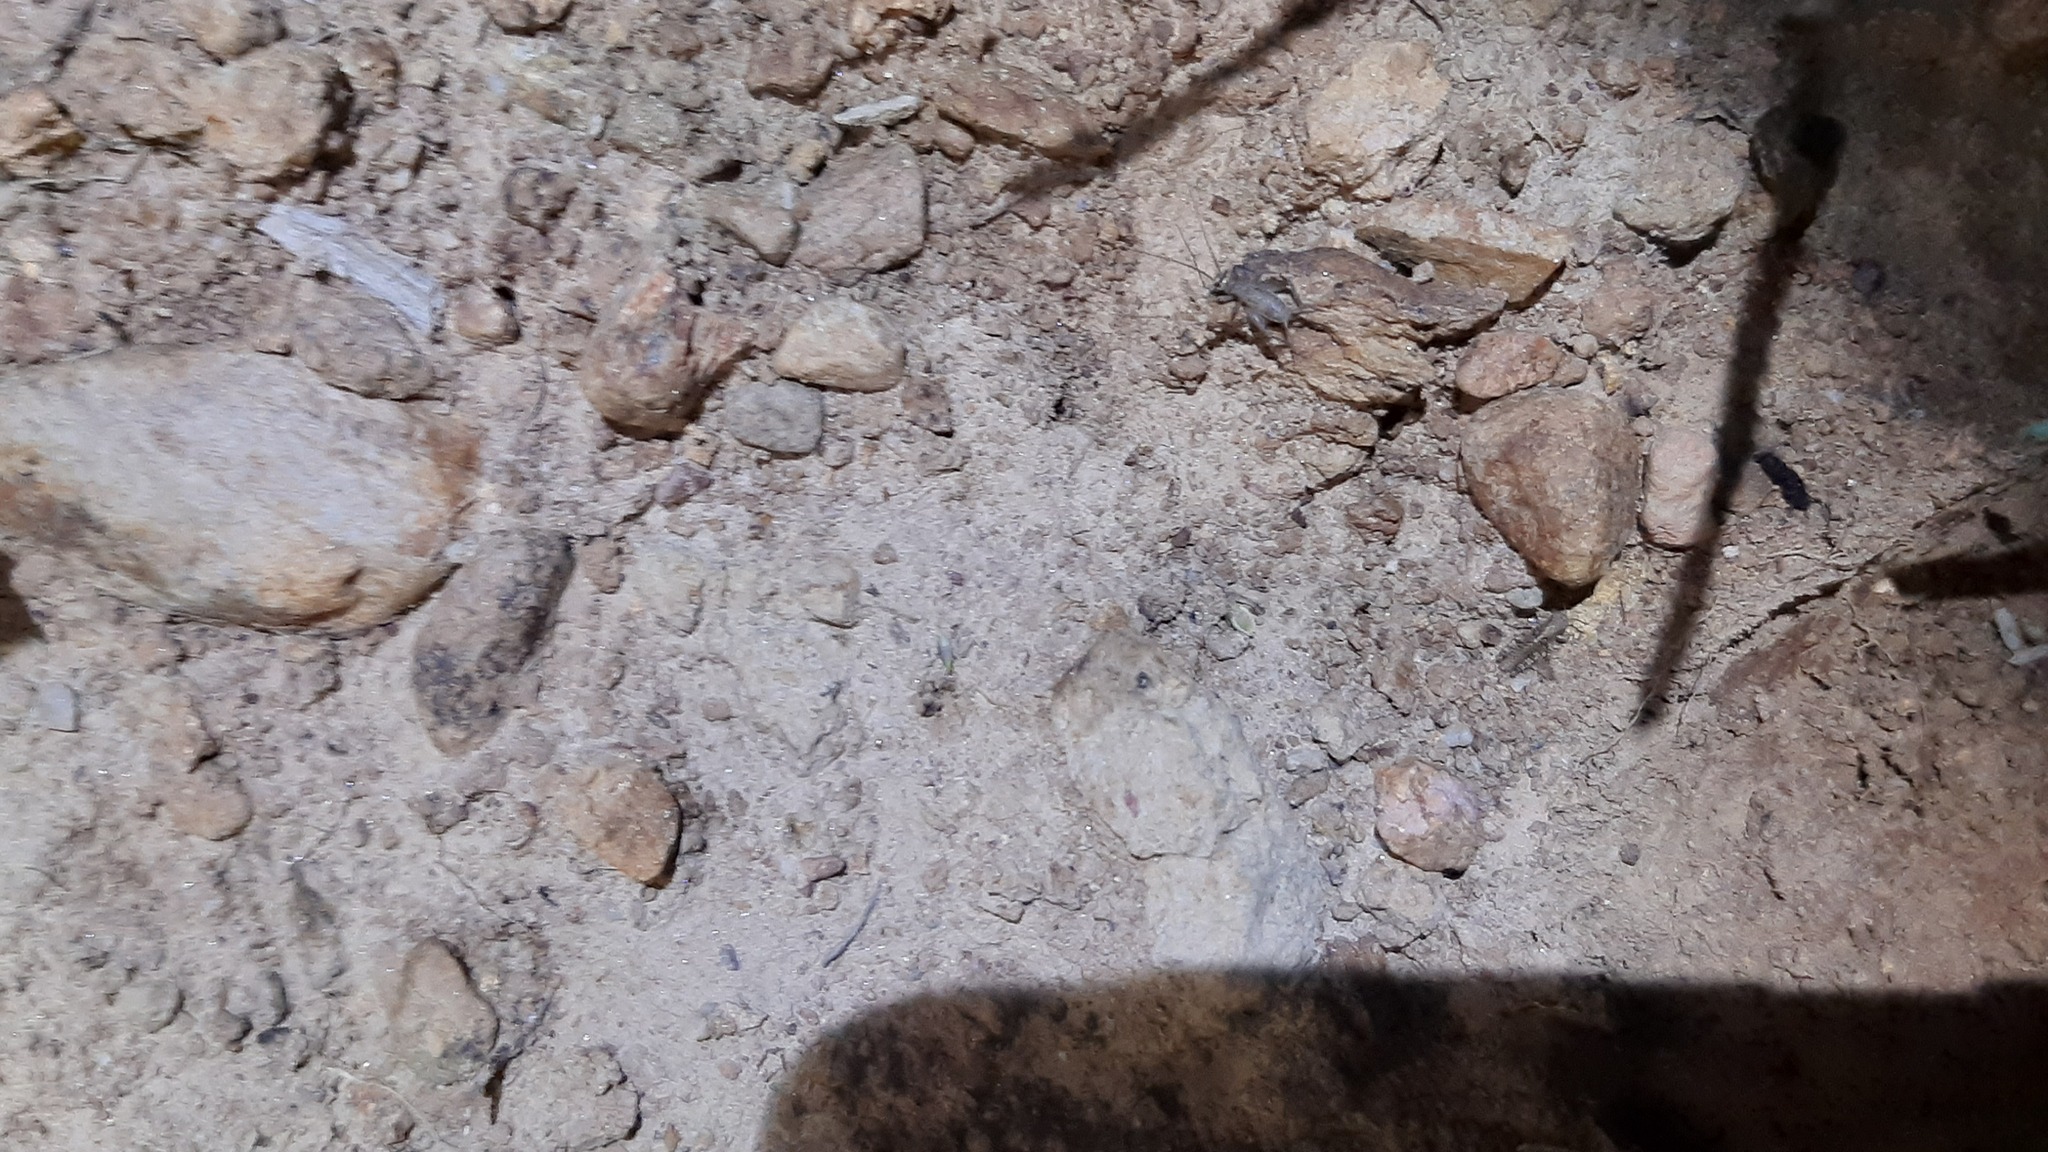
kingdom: Animalia
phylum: Arthropoda
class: Insecta
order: Orthoptera
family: Gryllidae
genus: Eumodicogryllus
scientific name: Eumodicogryllus bordigalensis
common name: Bordeaux cricket
